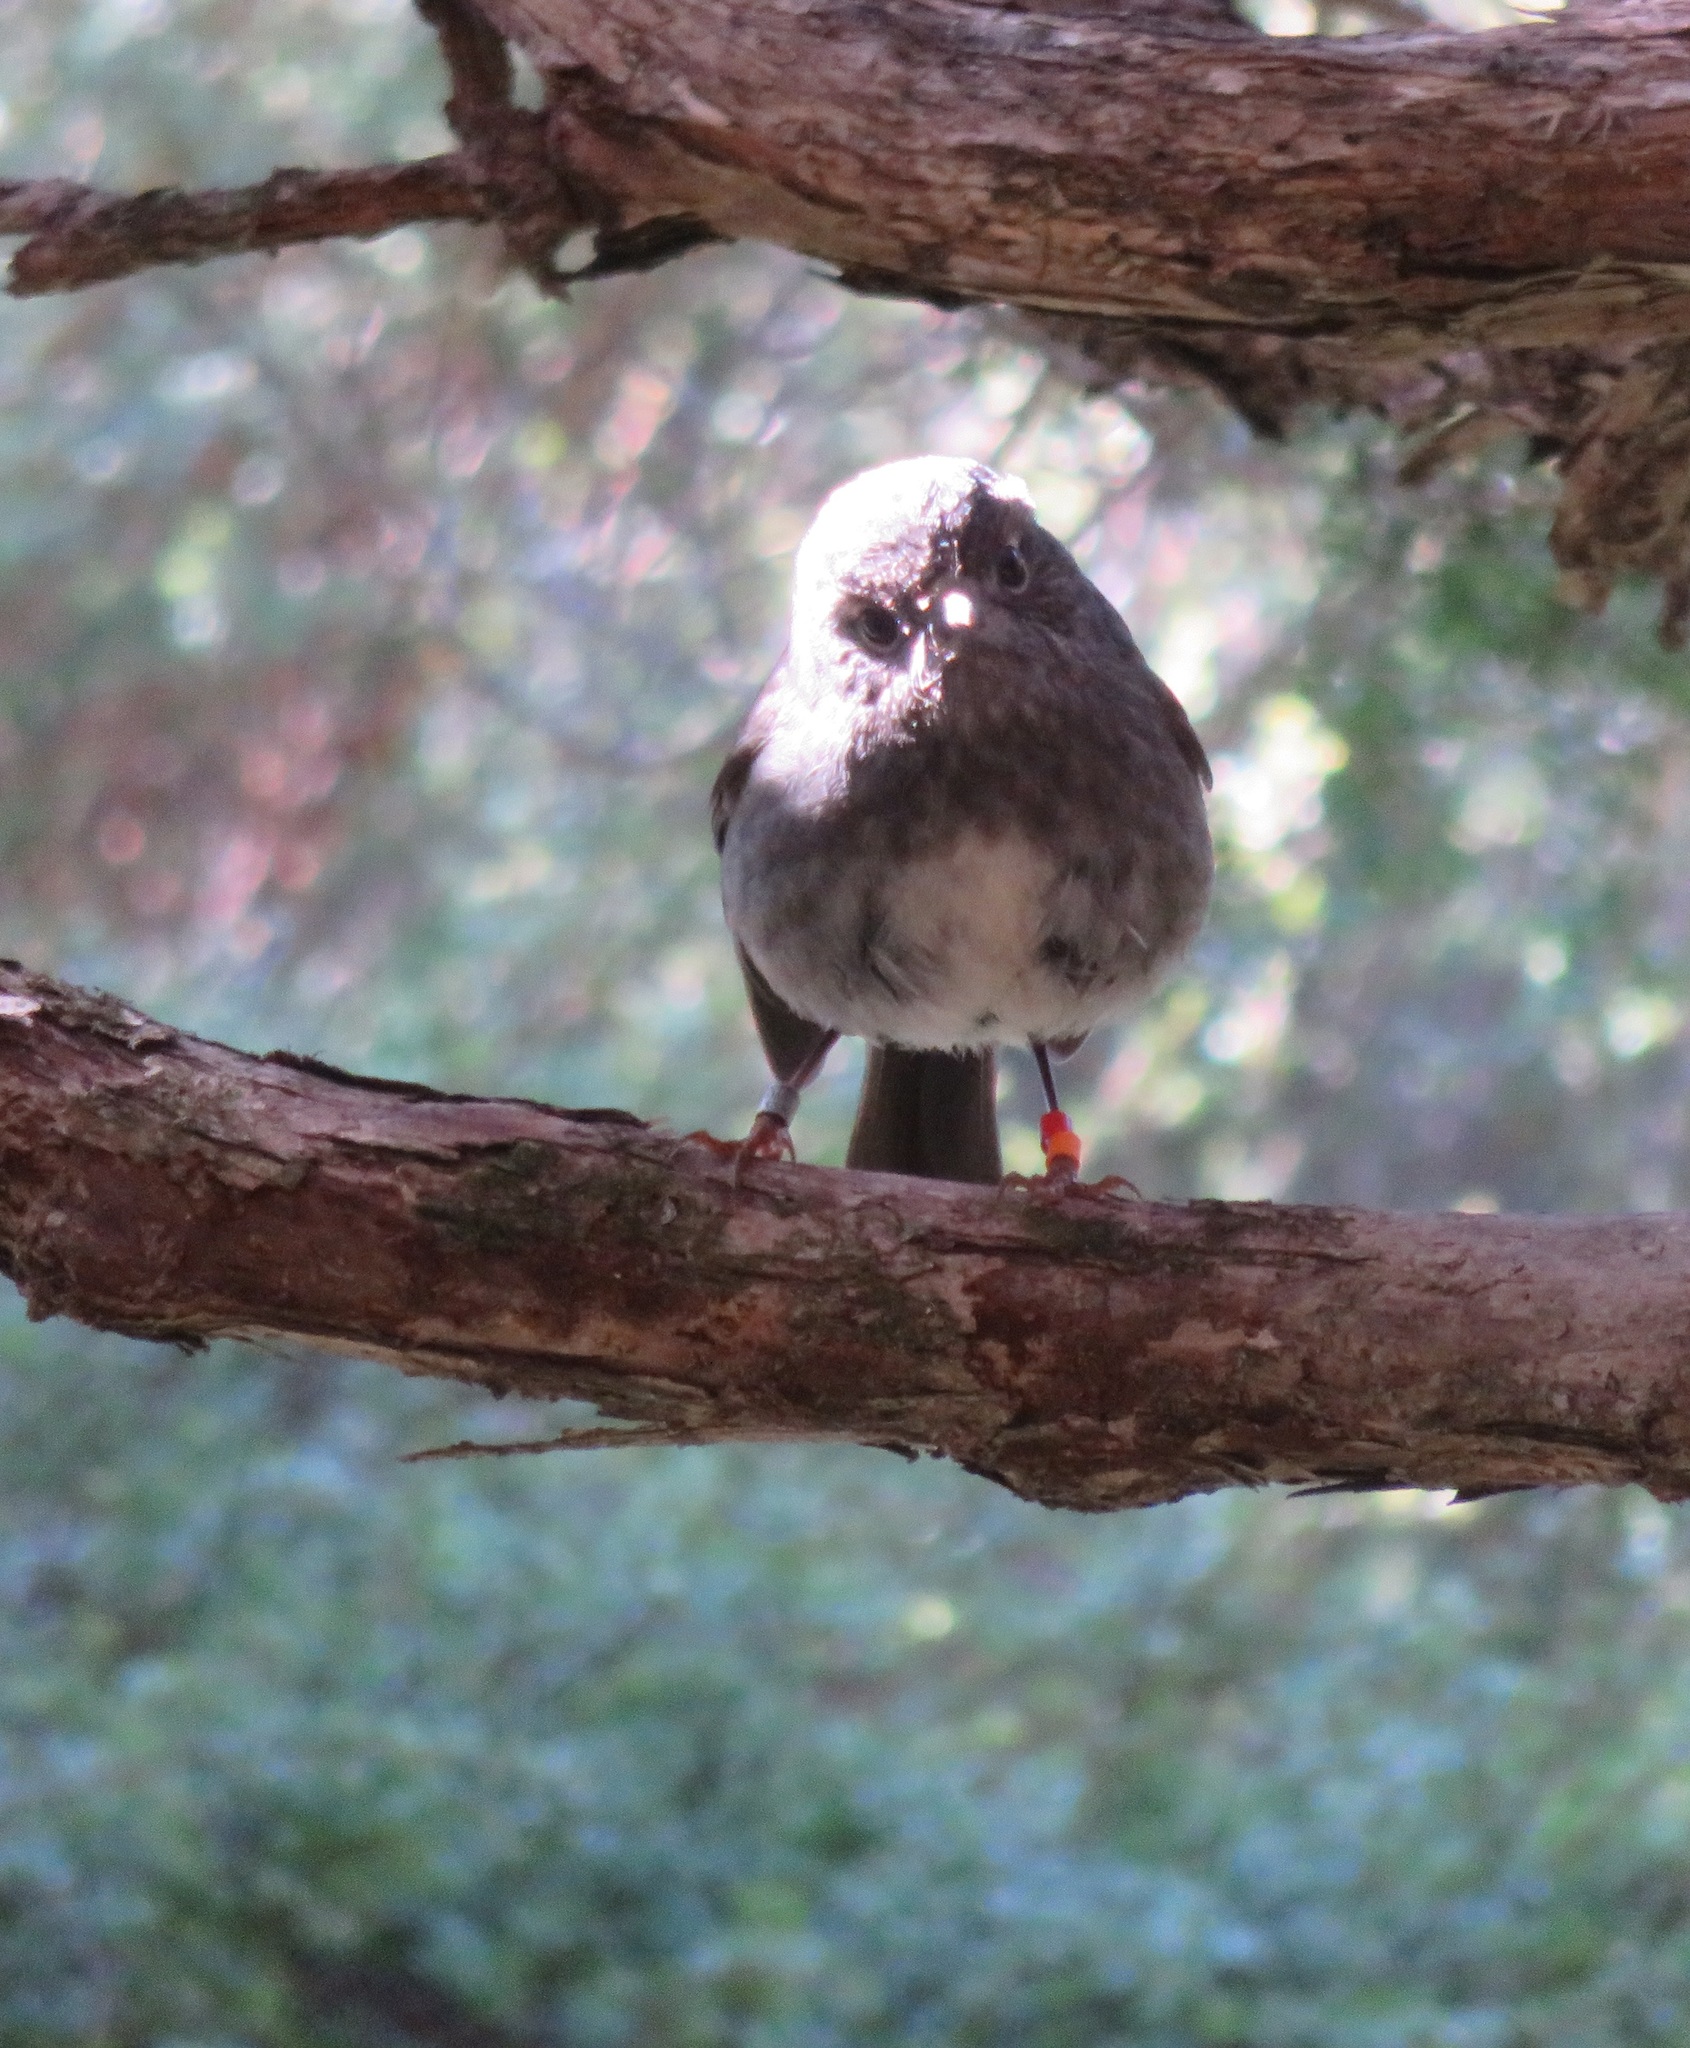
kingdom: Animalia
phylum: Chordata
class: Aves
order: Passeriformes
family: Petroicidae
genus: Petroica
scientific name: Petroica australis
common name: New zealand robin
